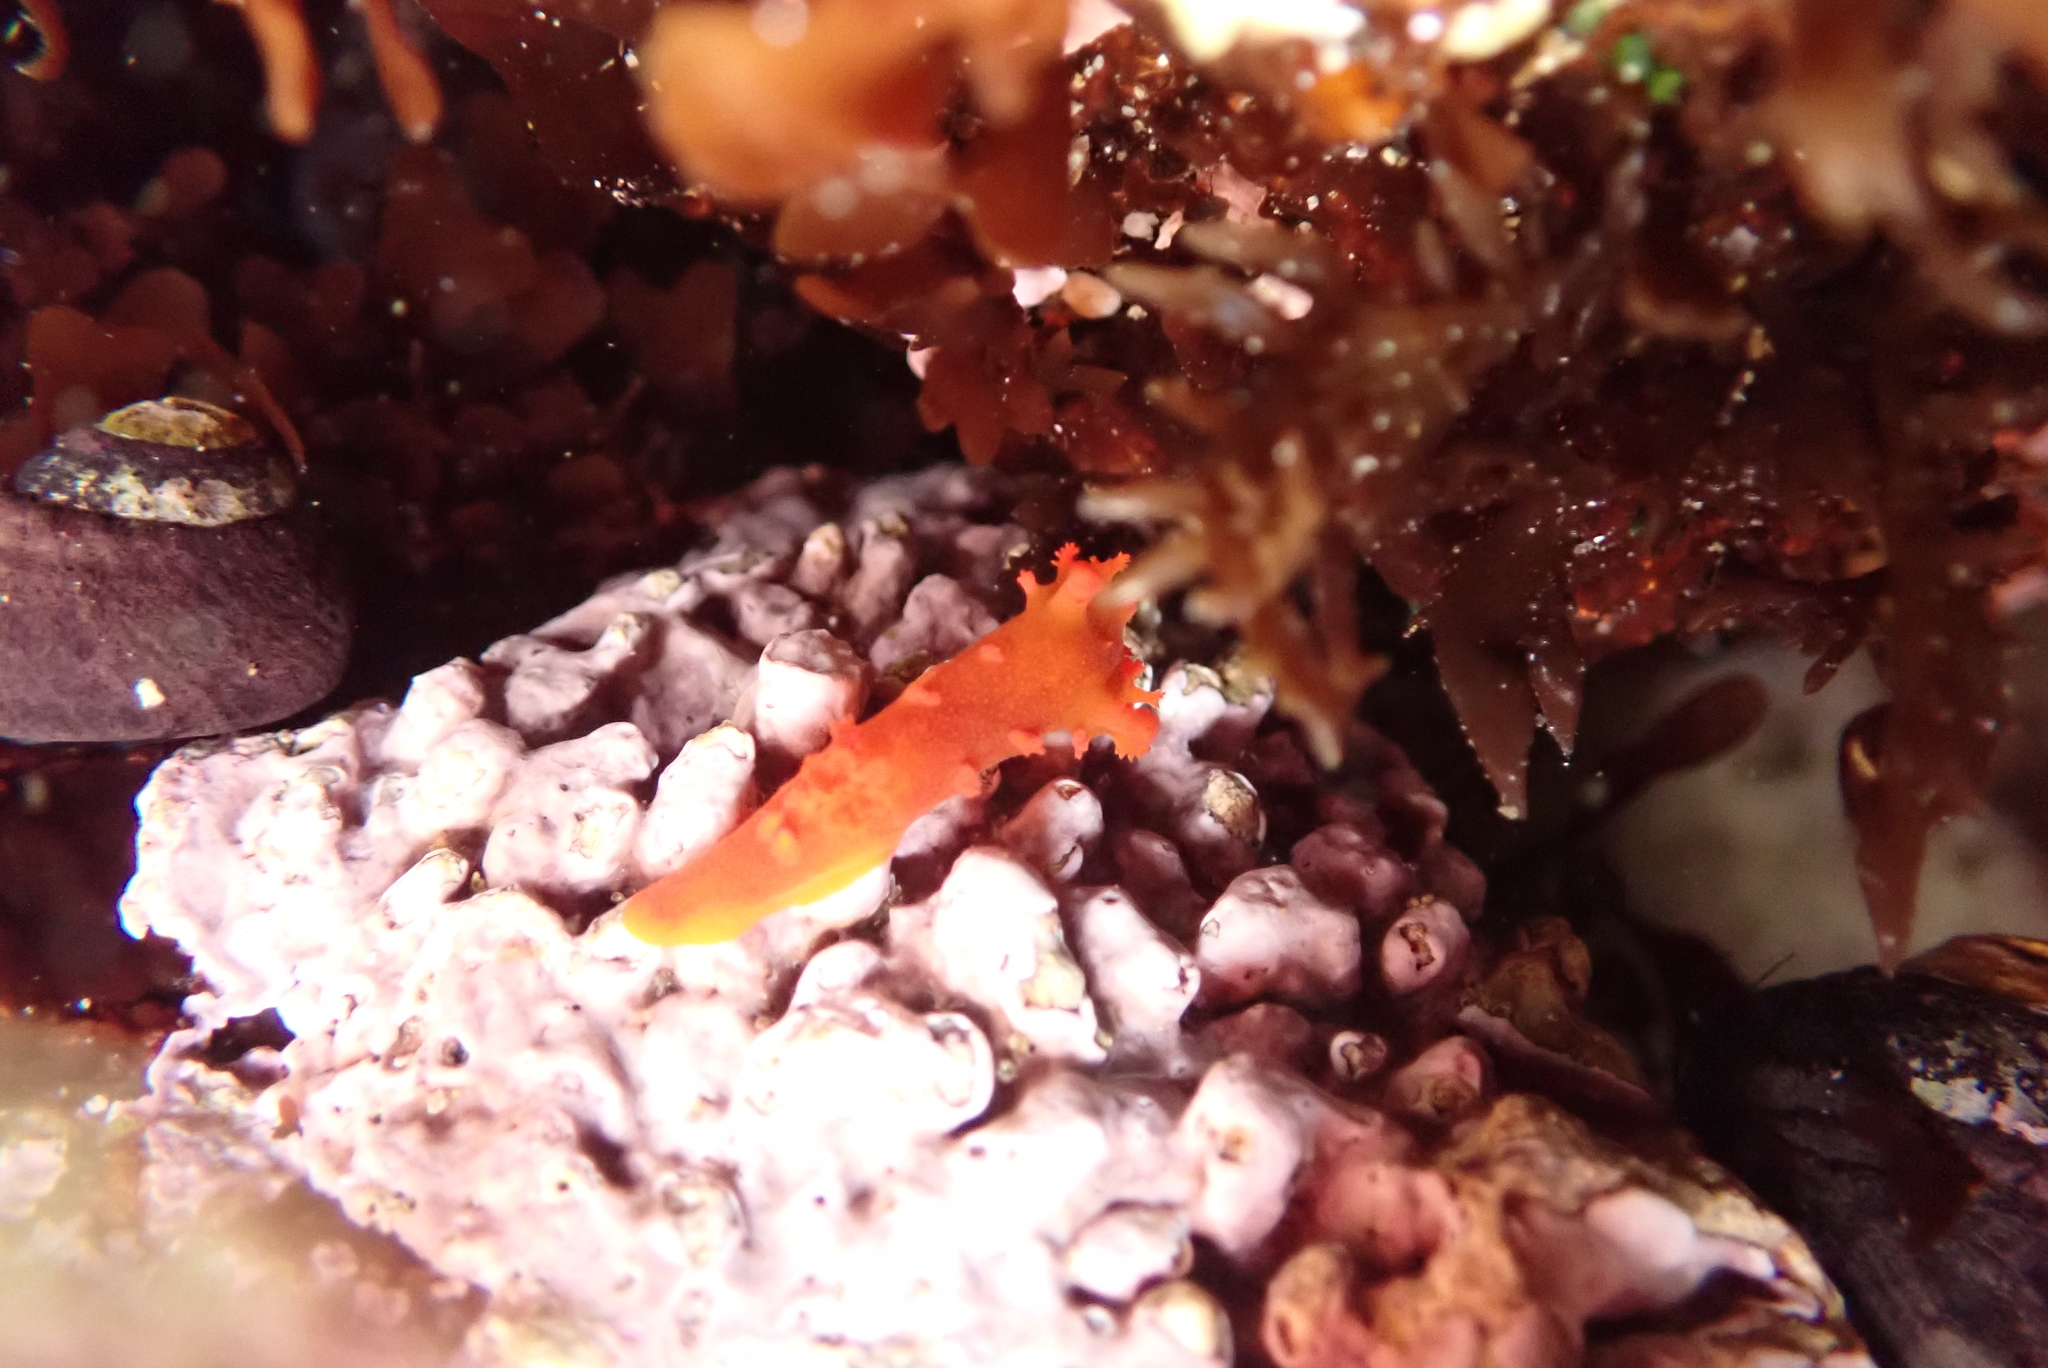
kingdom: Animalia
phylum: Mollusca
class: Gastropoda
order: Nudibranchia
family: Polyceridae
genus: Triopha
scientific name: Triopha maculata
